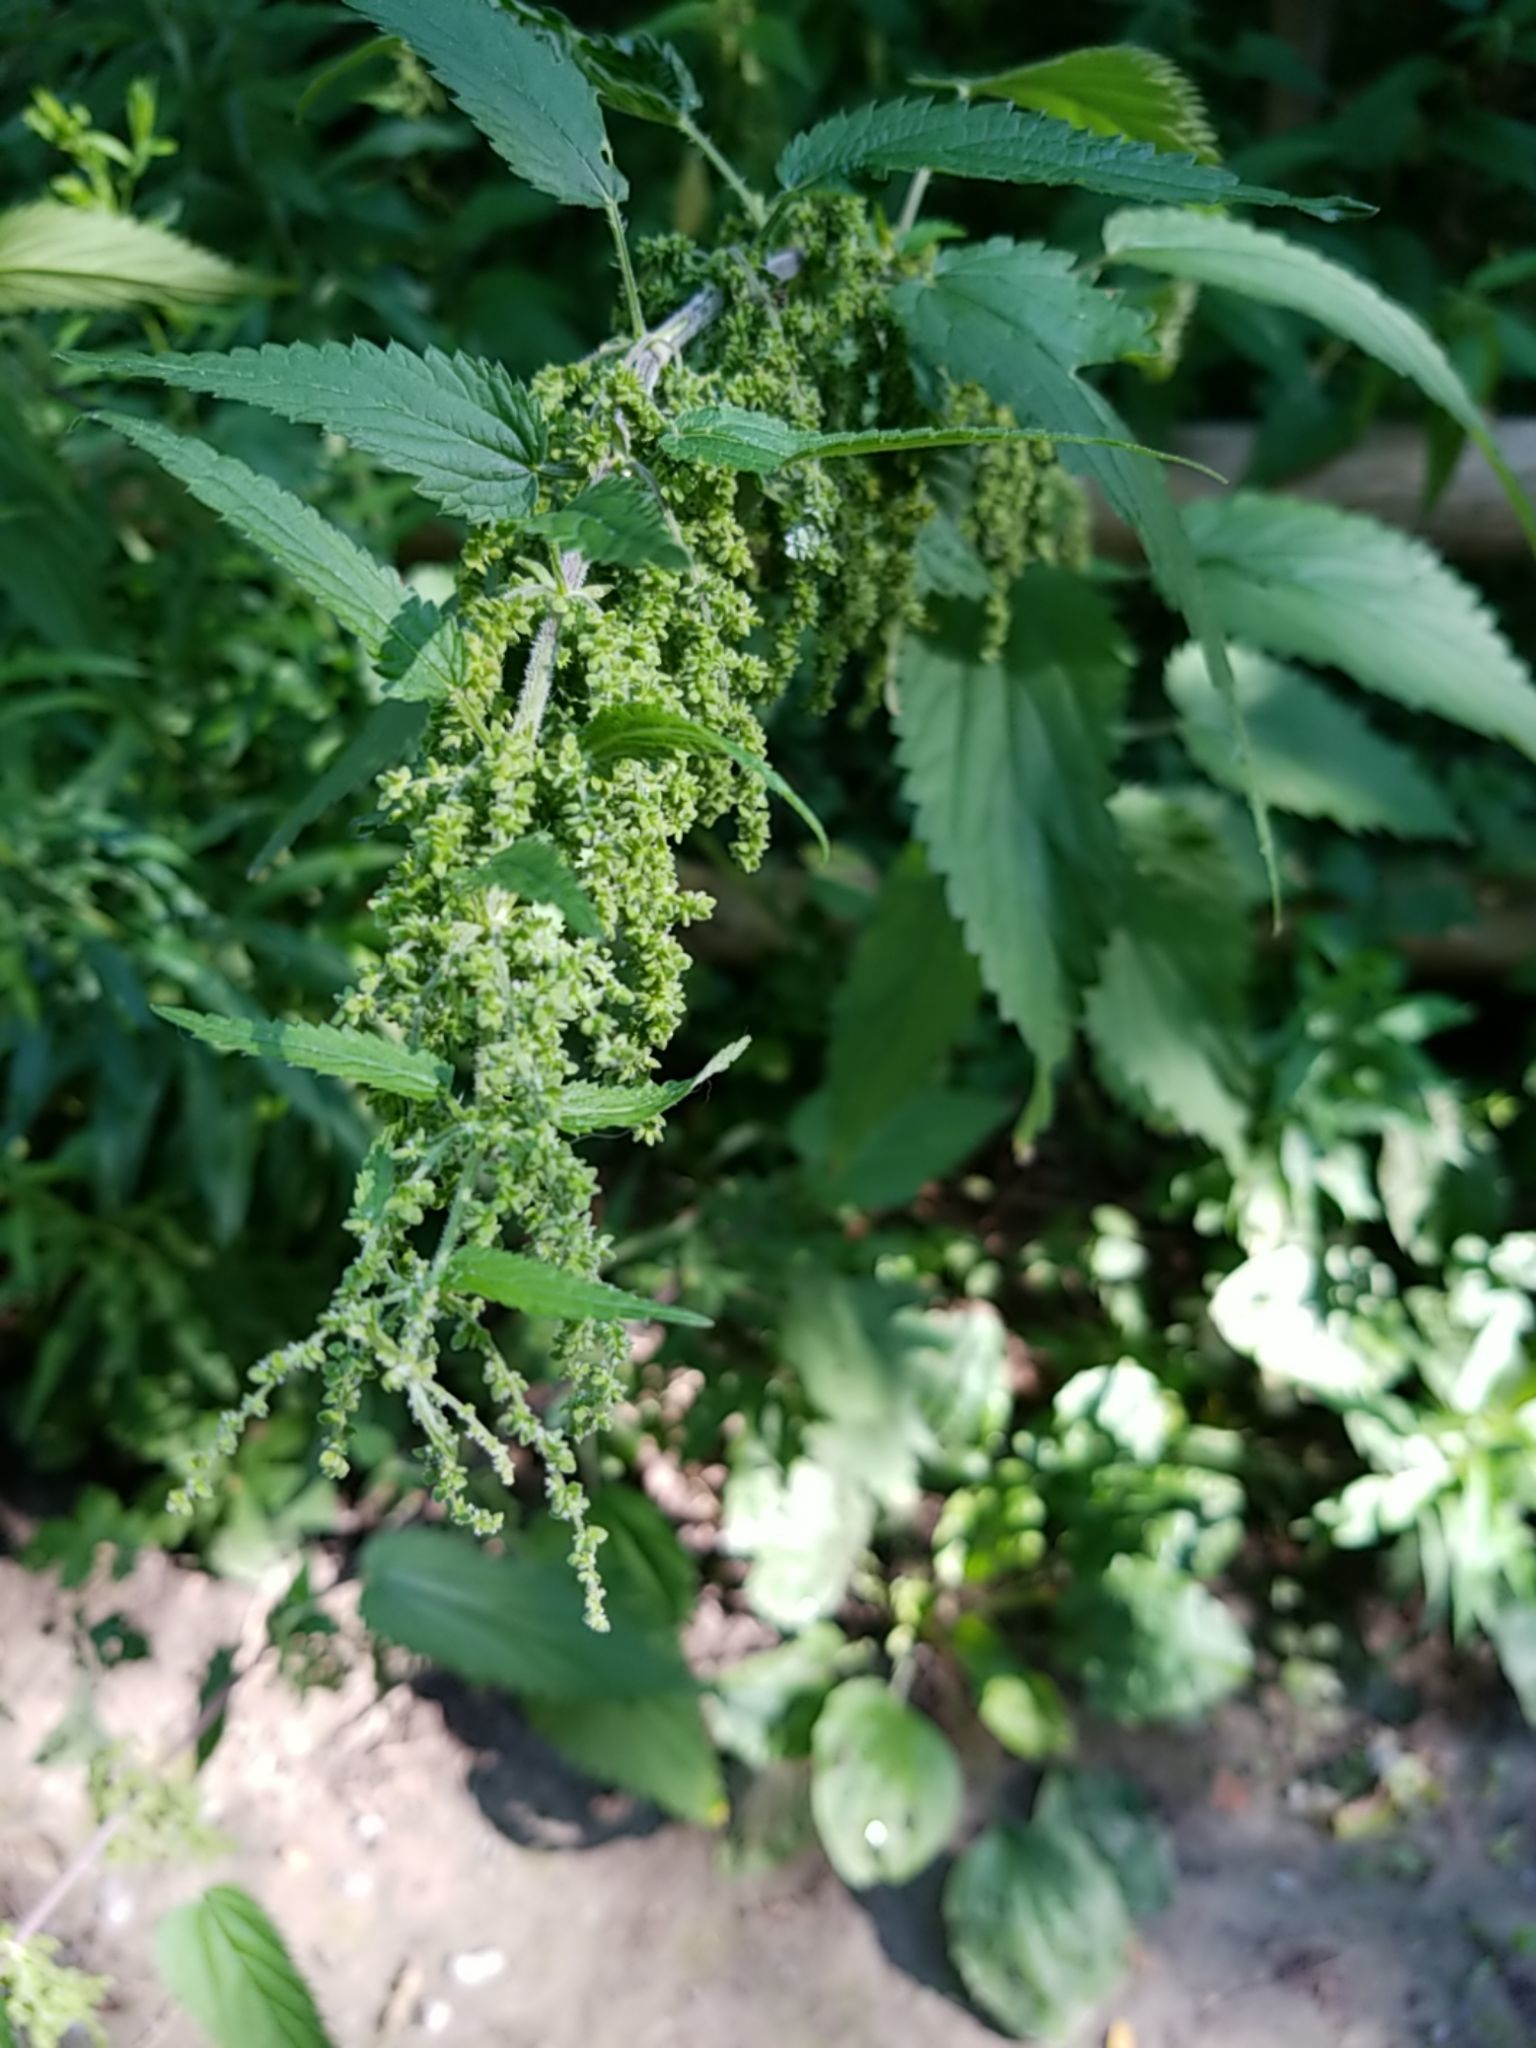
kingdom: Plantae
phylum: Tracheophyta
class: Magnoliopsida
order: Rosales
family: Urticaceae
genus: Urtica
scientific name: Urtica dioica
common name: Common nettle
